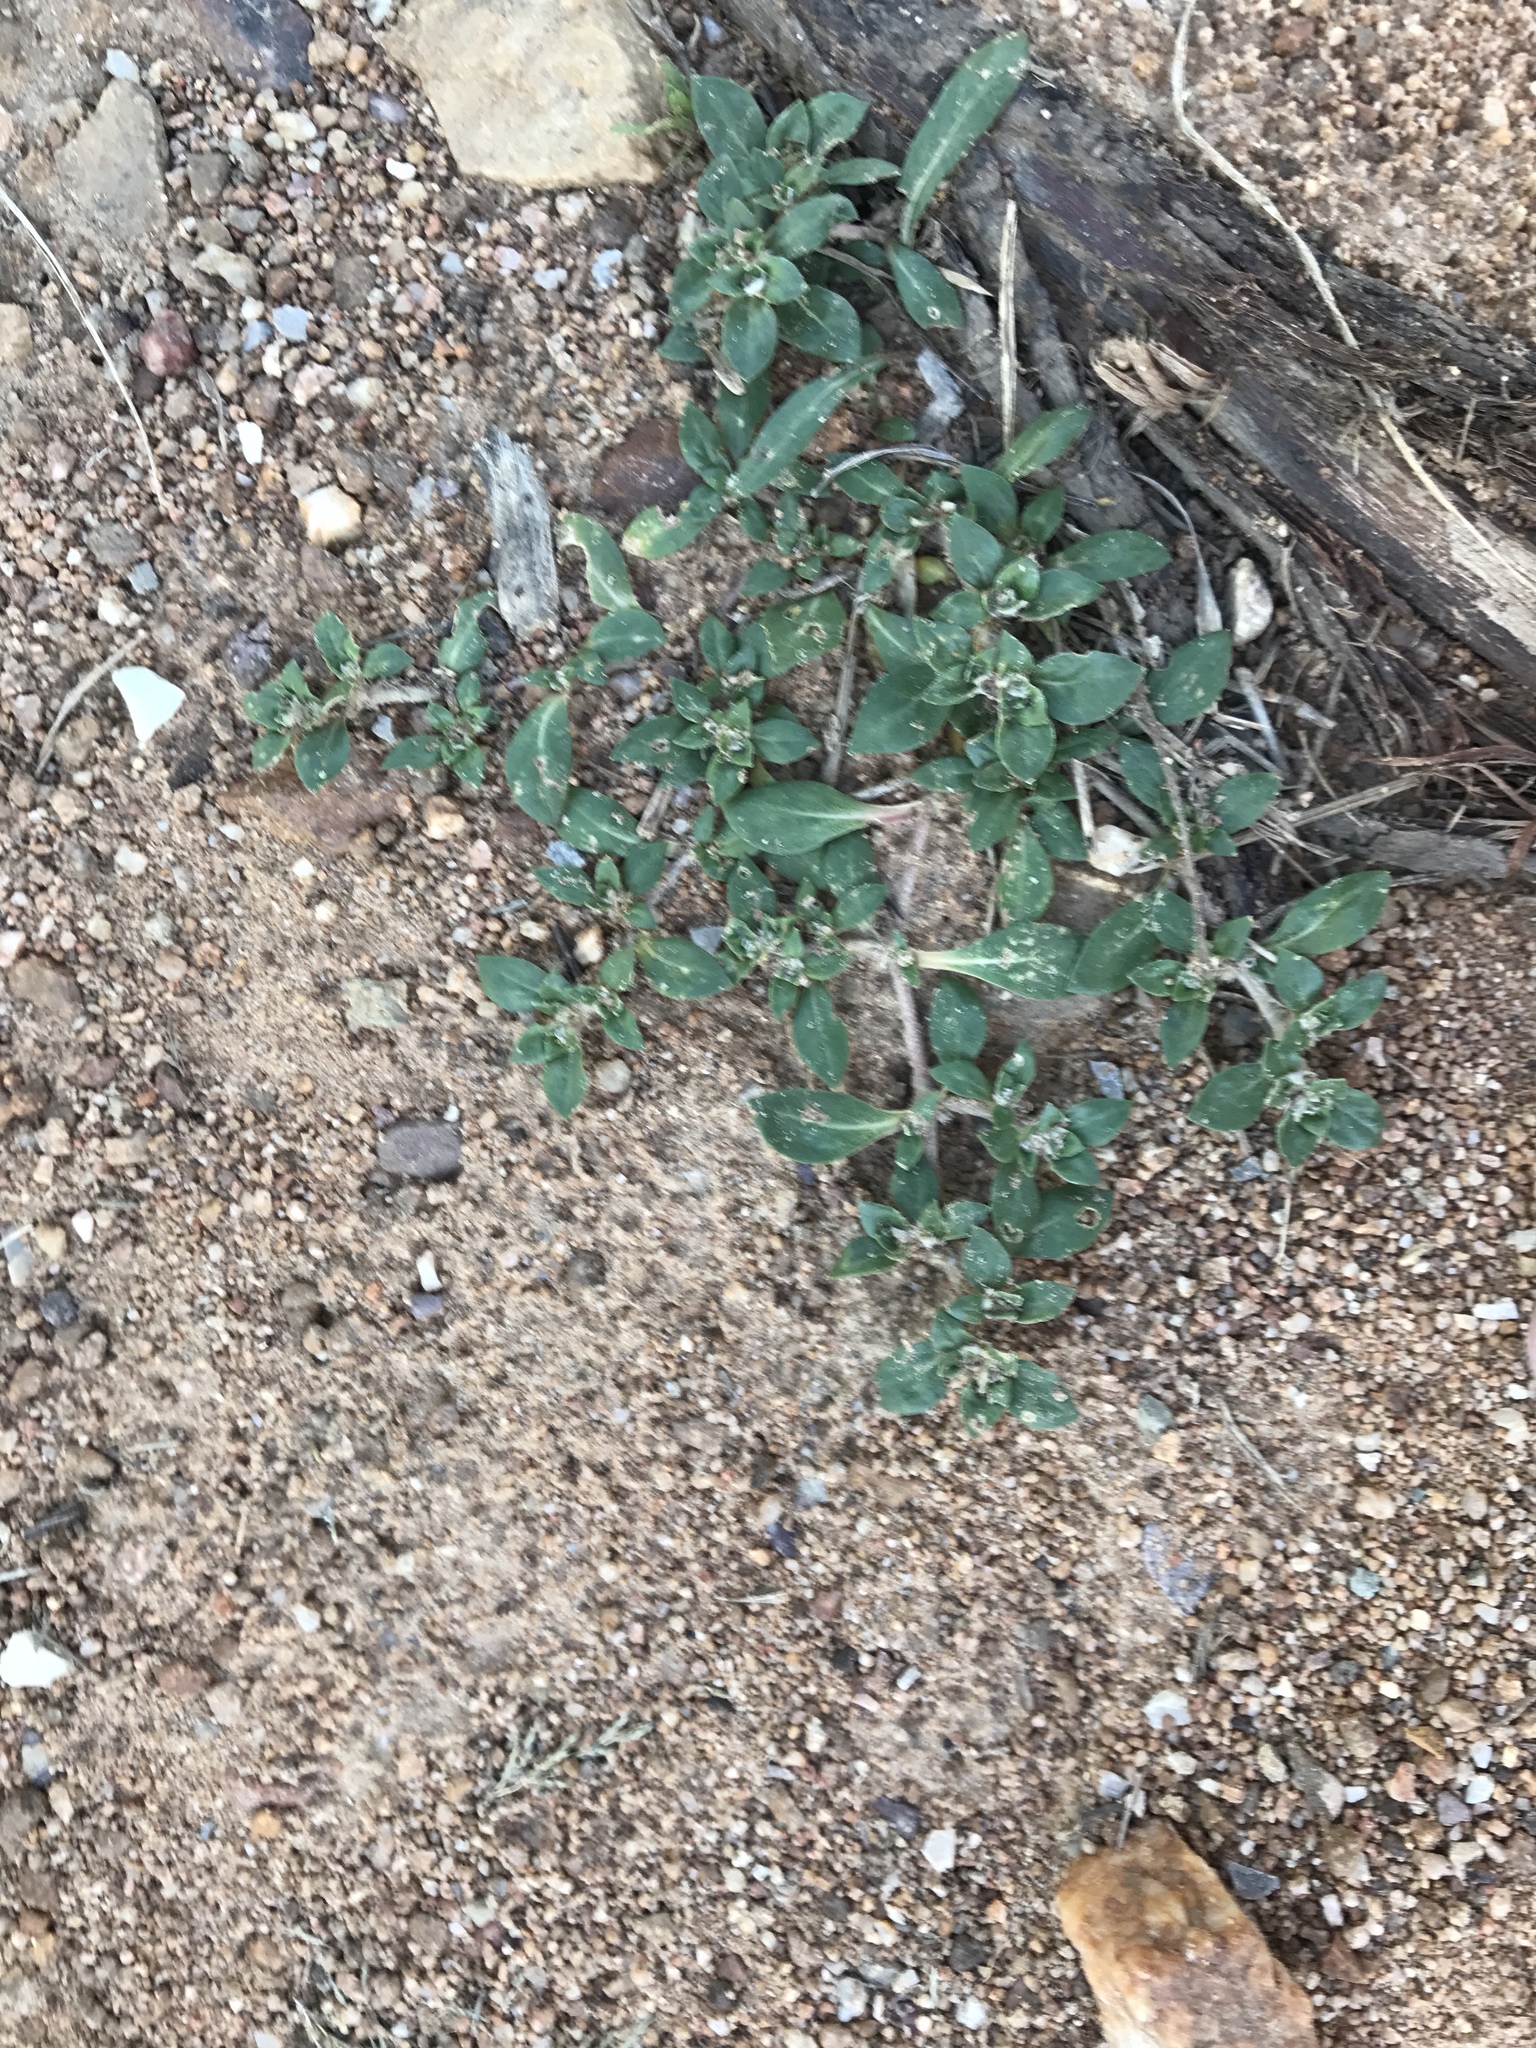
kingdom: Plantae
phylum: Tracheophyta
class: Magnoliopsida
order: Caryophyllales
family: Amaranthaceae
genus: Guilleminea
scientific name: Guilleminea densa
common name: Small matweed
